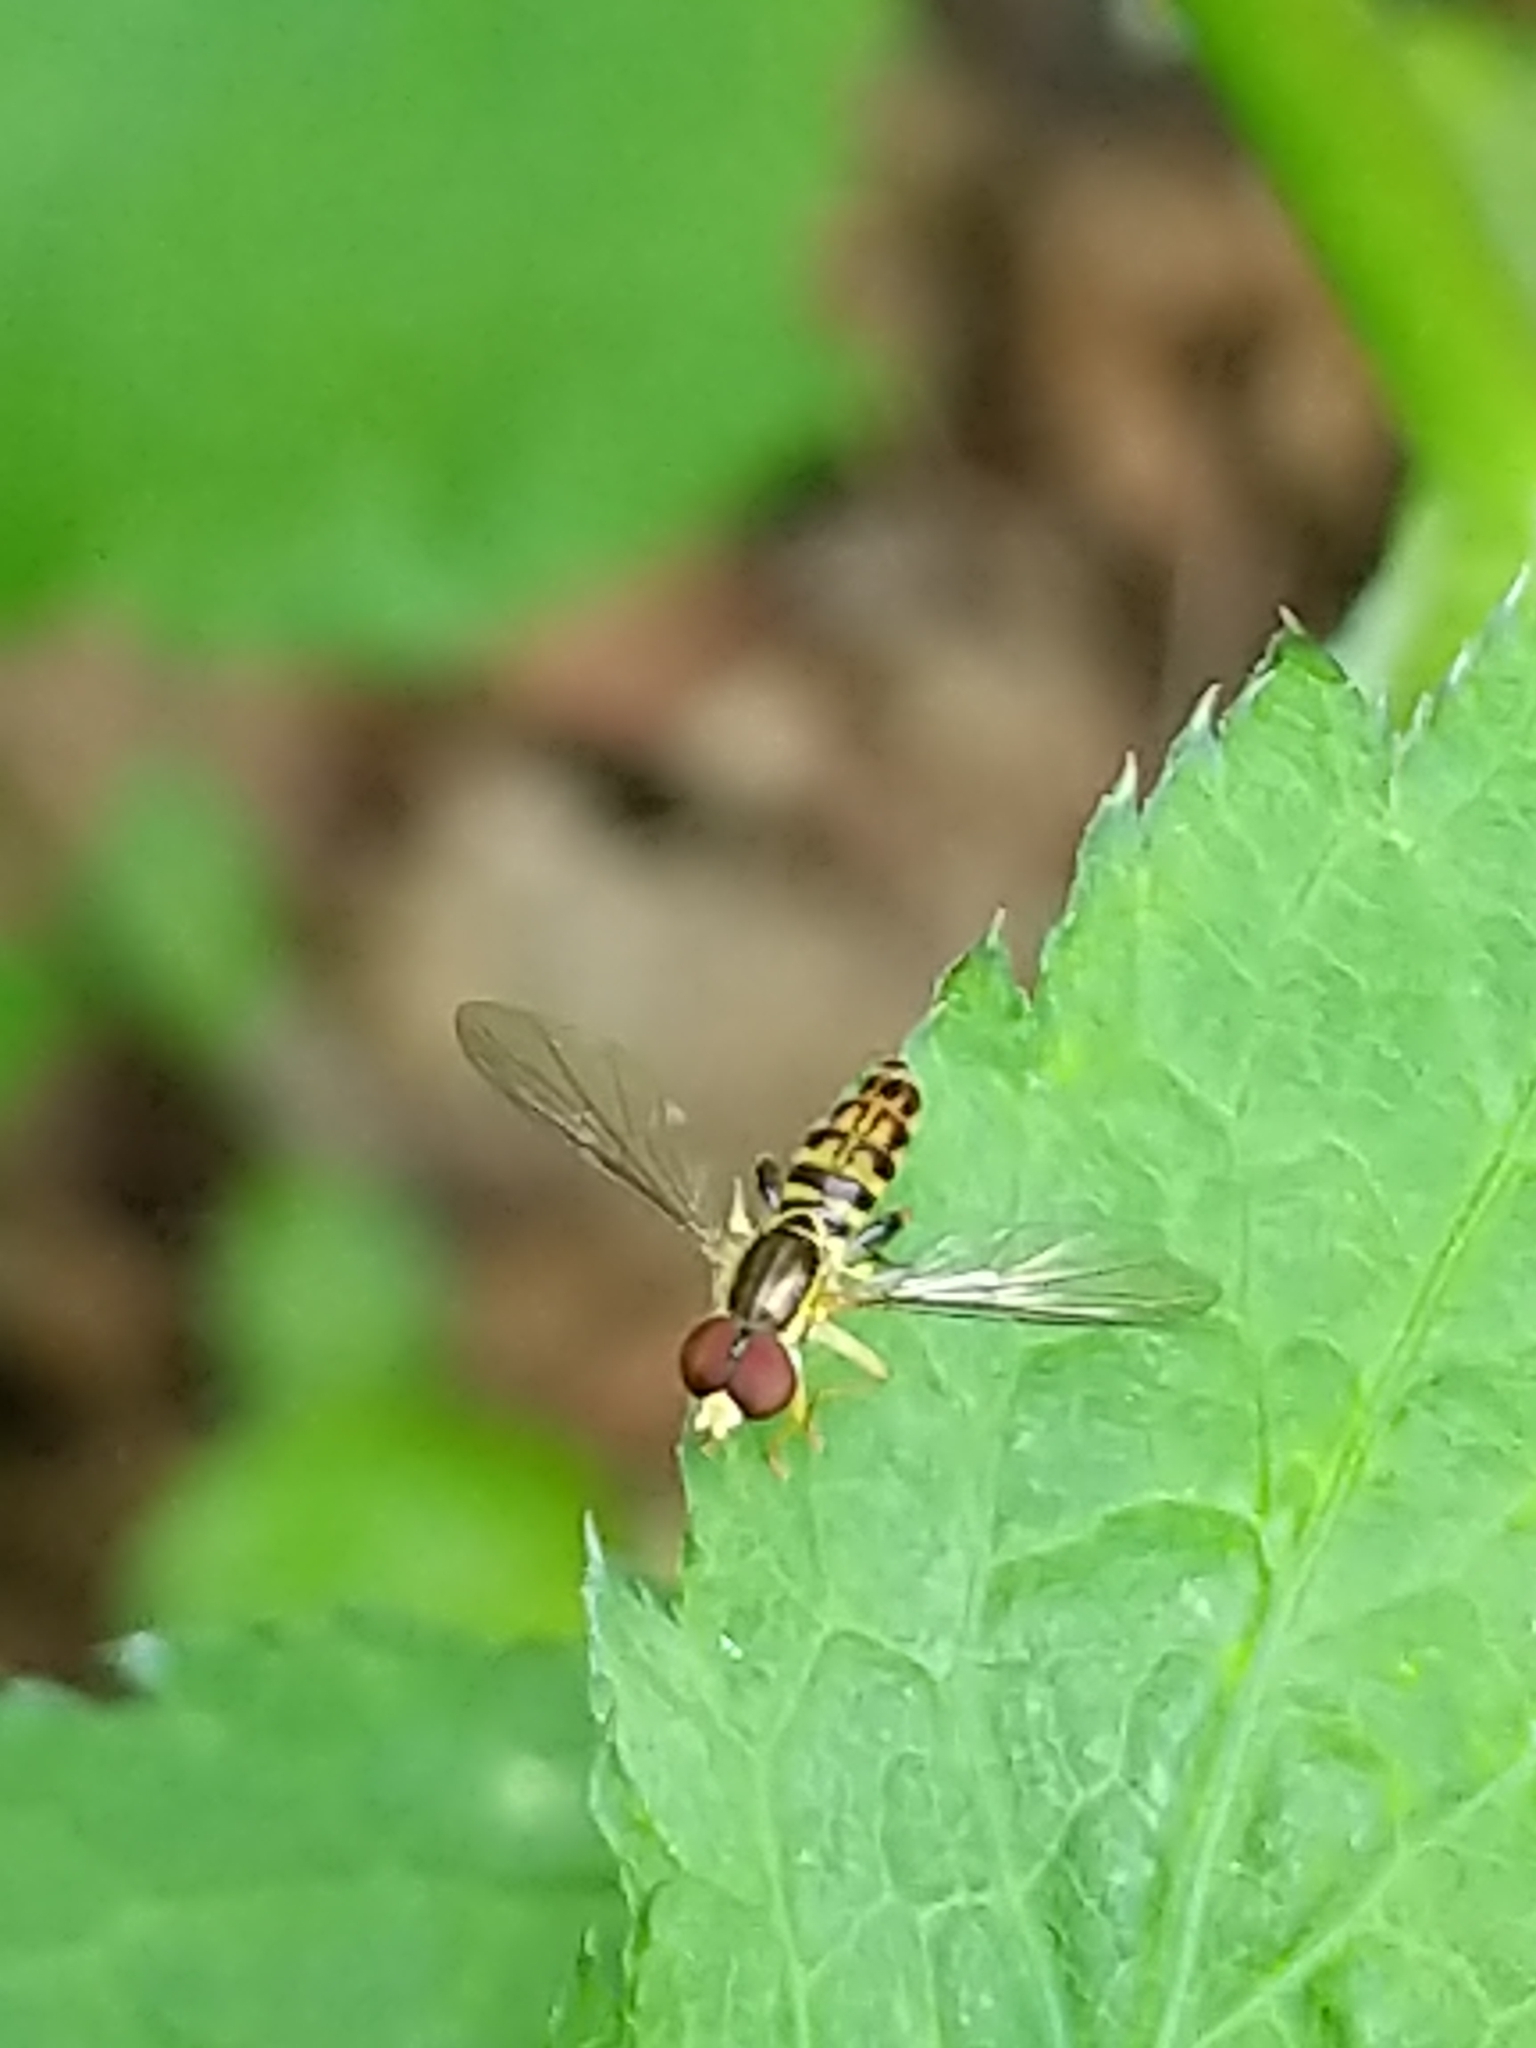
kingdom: Animalia
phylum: Arthropoda
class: Insecta
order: Diptera
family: Syrphidae
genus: Toxomerus
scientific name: Toxomerus geminatus
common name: Eastern calligrapher
